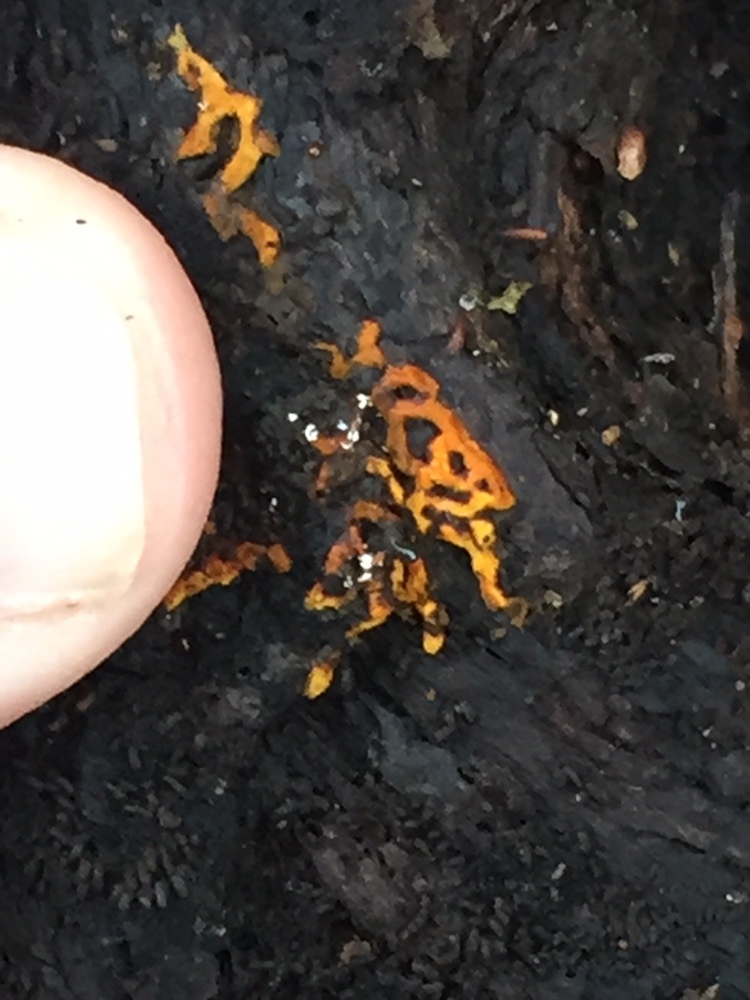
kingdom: Protozoa
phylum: Mycetozoa
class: Myxomycetes
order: Trichiales
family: Arcyriaceae
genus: Hemitrichia
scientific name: Hemitrichia serpula
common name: Pretzel slime mold
